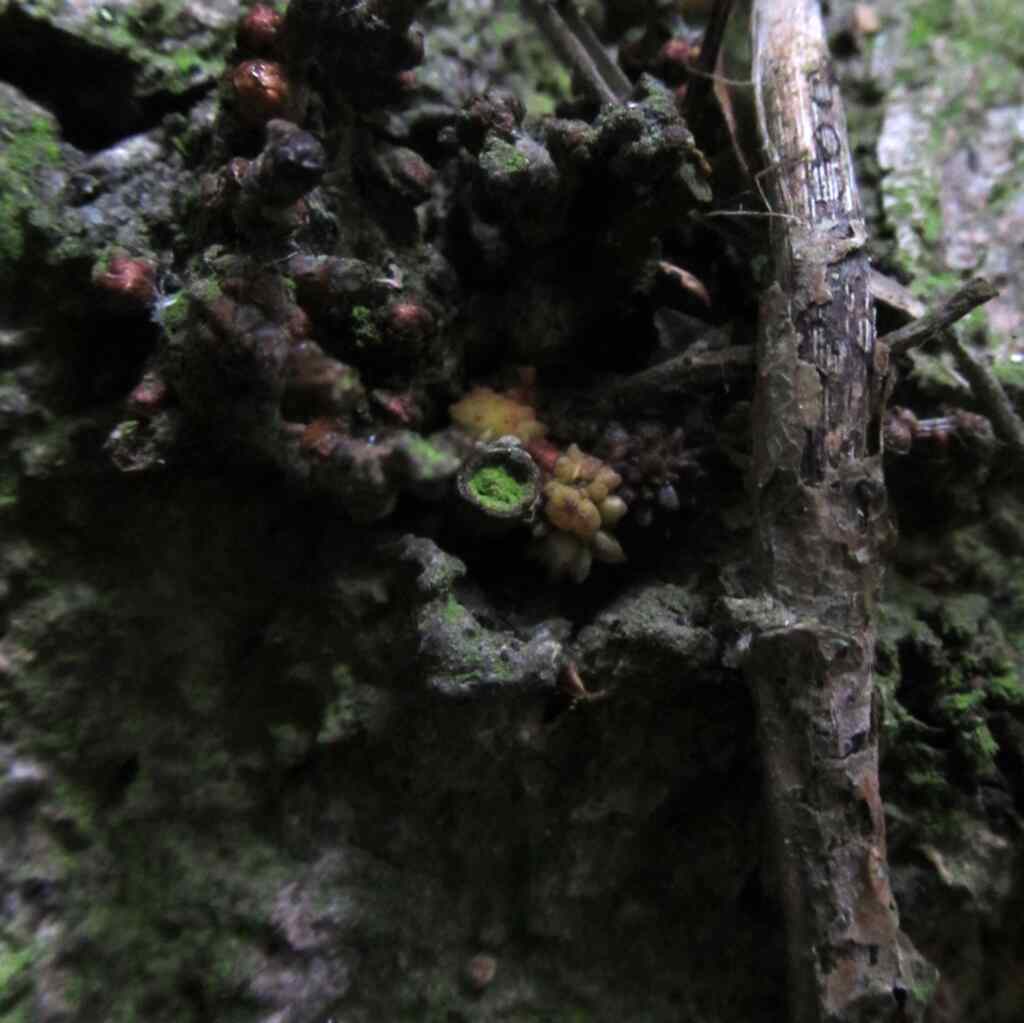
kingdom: Animalia
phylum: Arthropoda
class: Insecta
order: Hymenoptera
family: Cynipidae
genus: Andricus
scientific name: Andricus gemmeus
